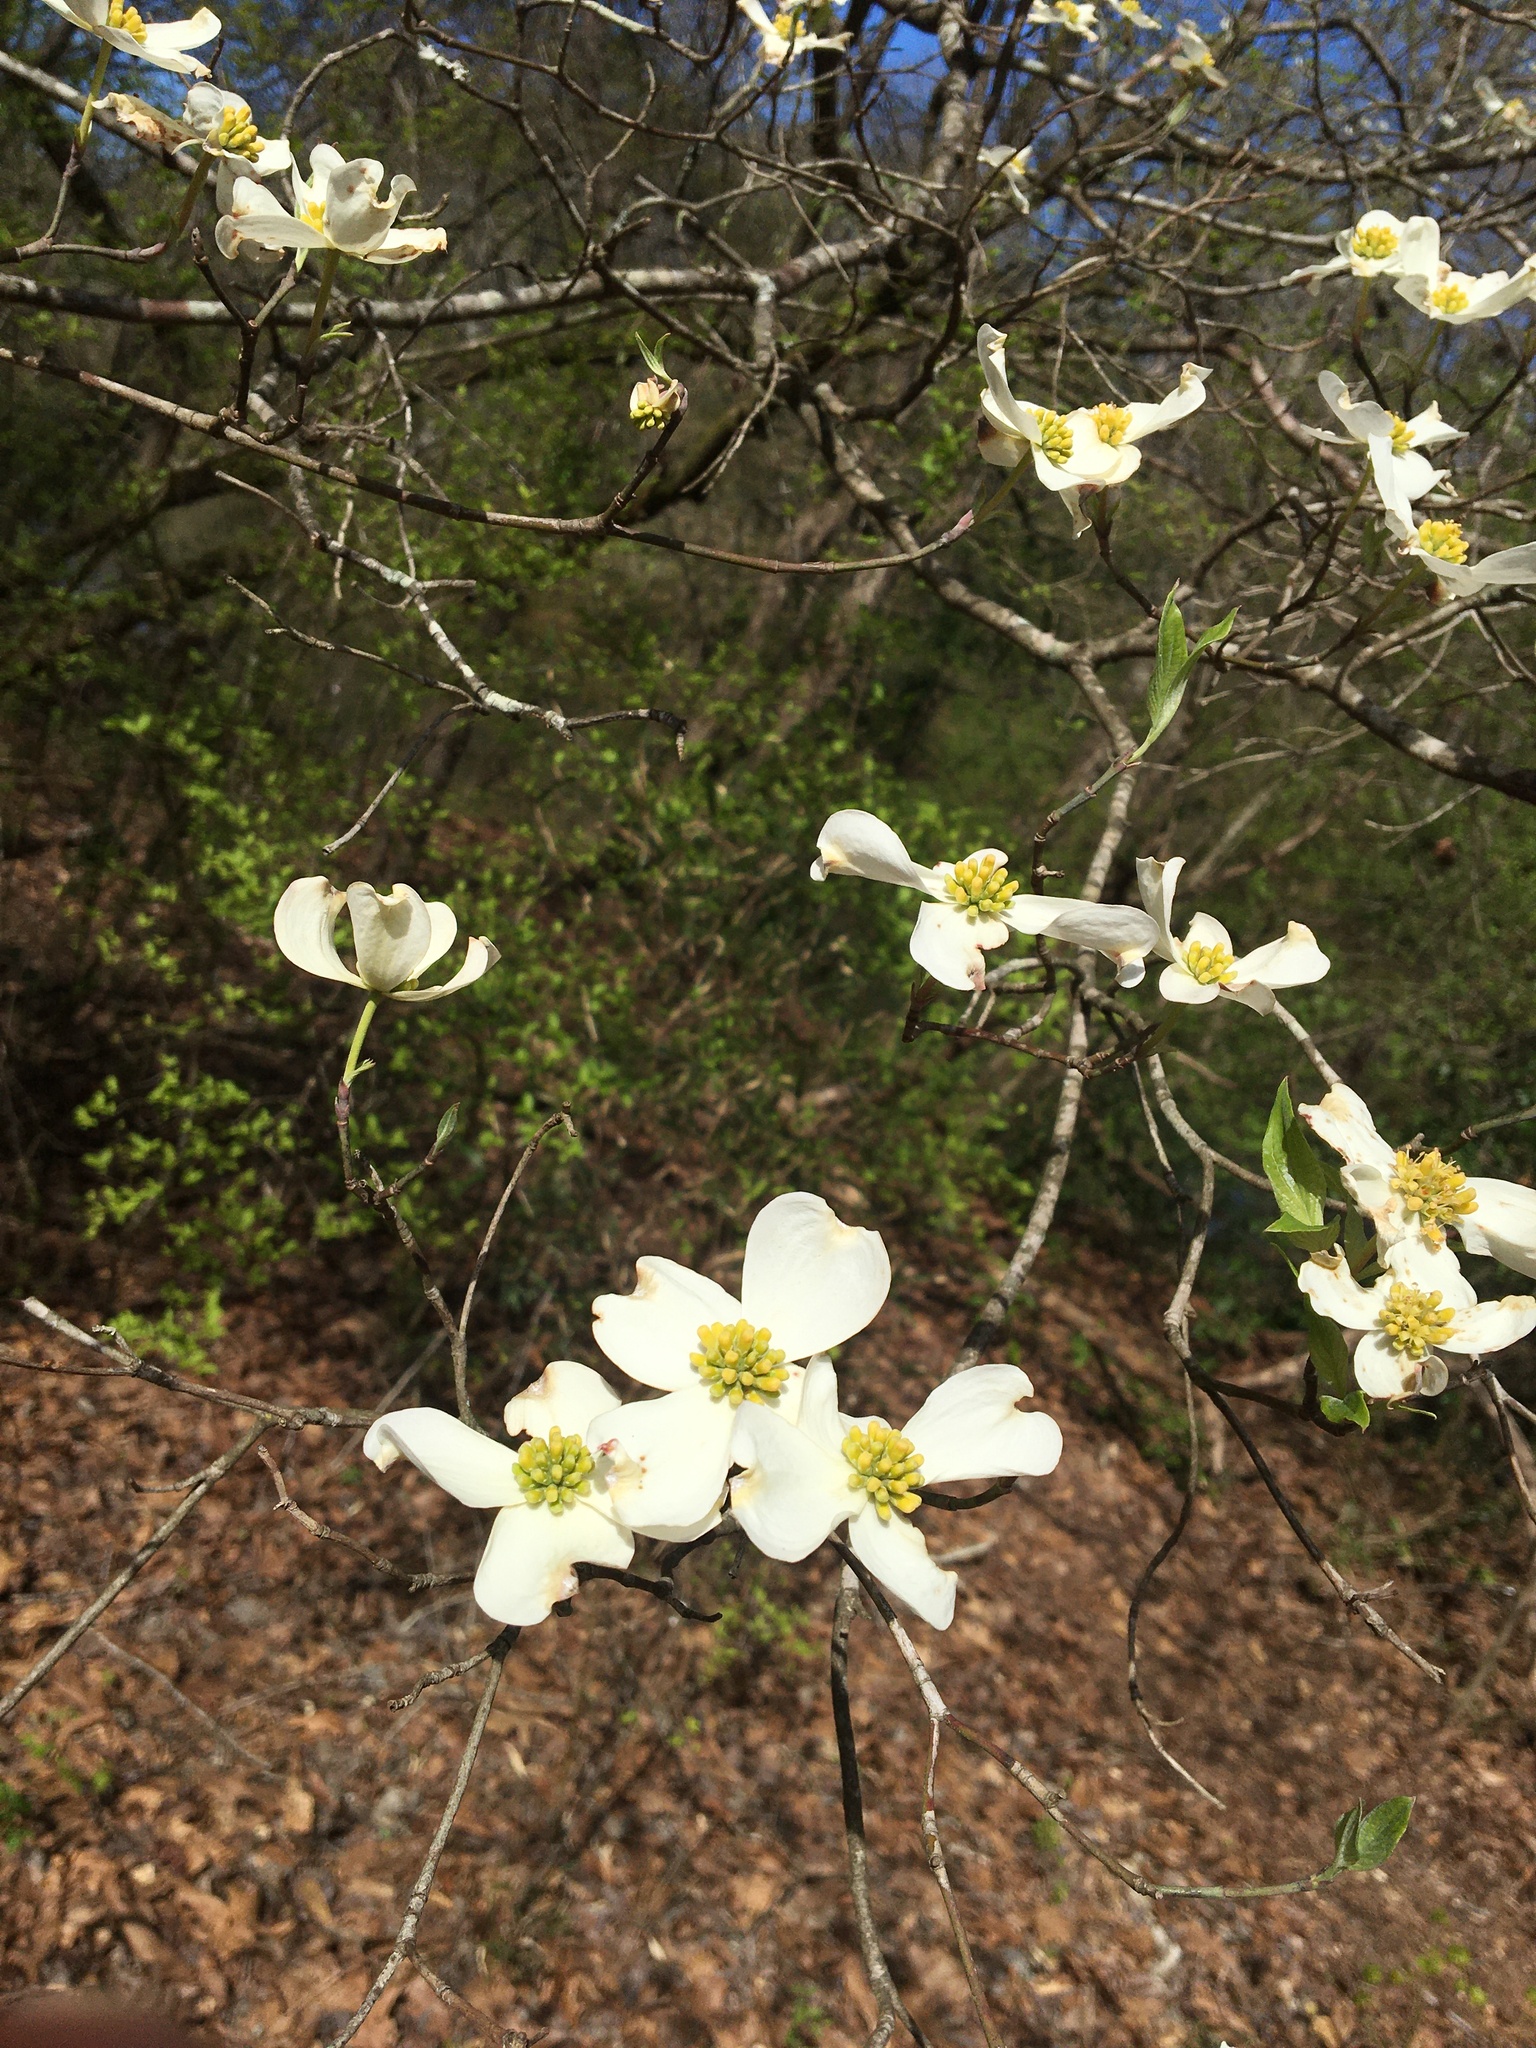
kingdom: Plantae
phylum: Tracheophyta
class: Magnoliopsida
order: Cornales
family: Cornaceae
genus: Cornus
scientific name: Cornus florida
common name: Flowering dogwood
